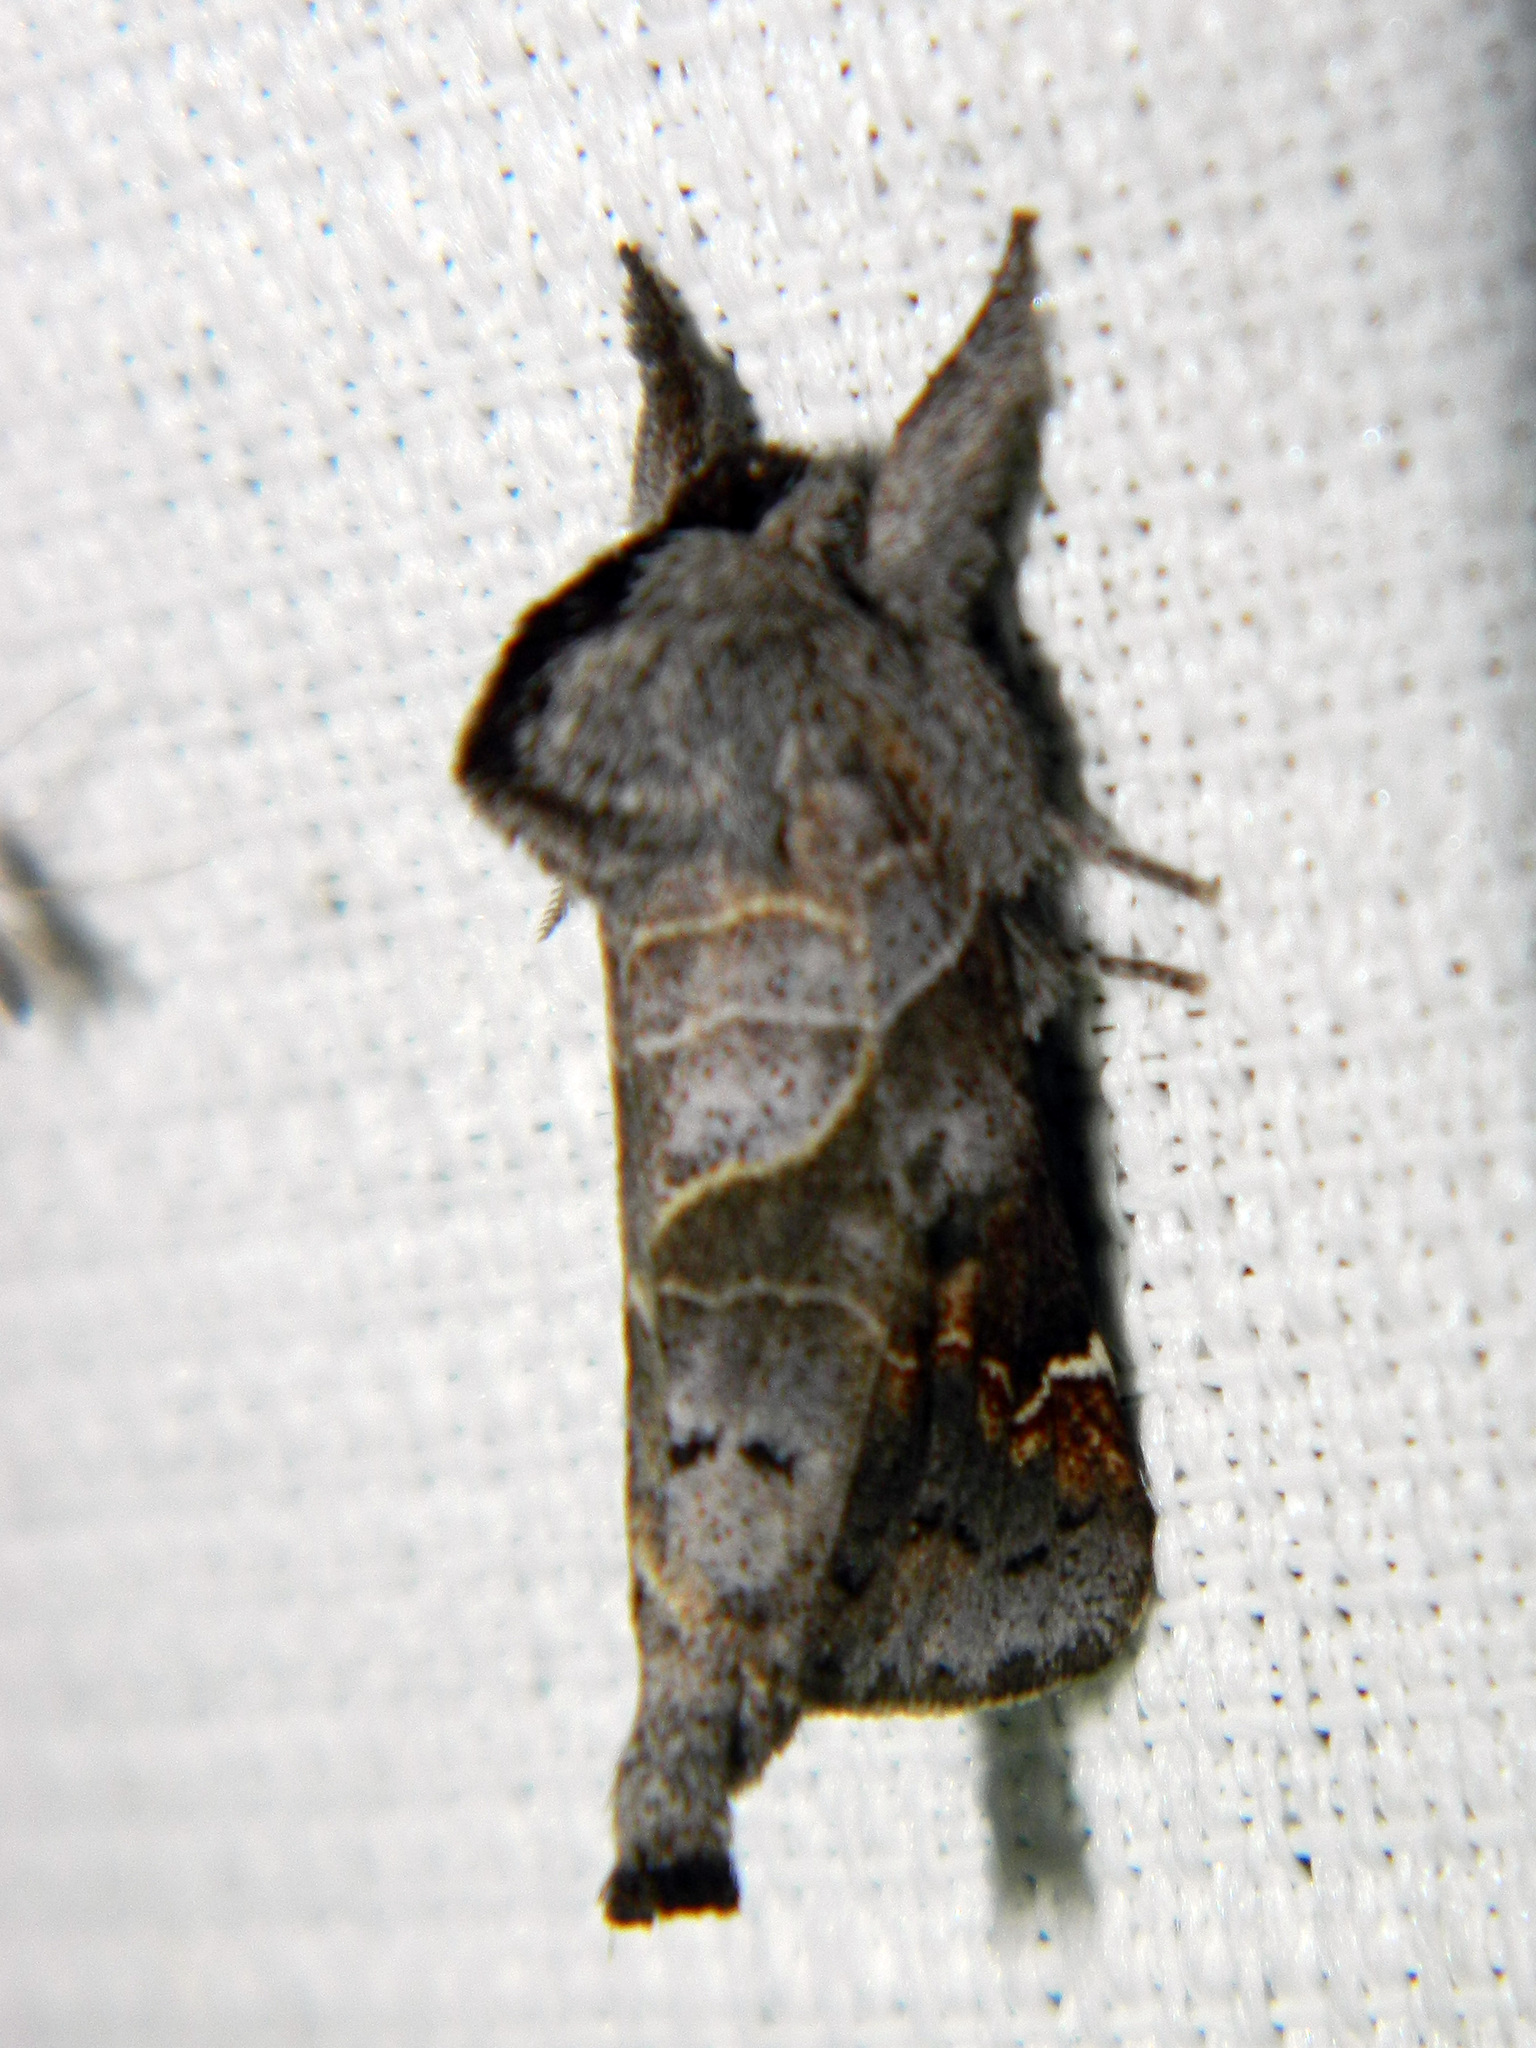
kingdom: Animalia
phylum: Arthropoda
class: Insecta
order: Lepidoptera
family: Notodontidae
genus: Clostera
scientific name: Clostera apicalis
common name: Apical prominent
